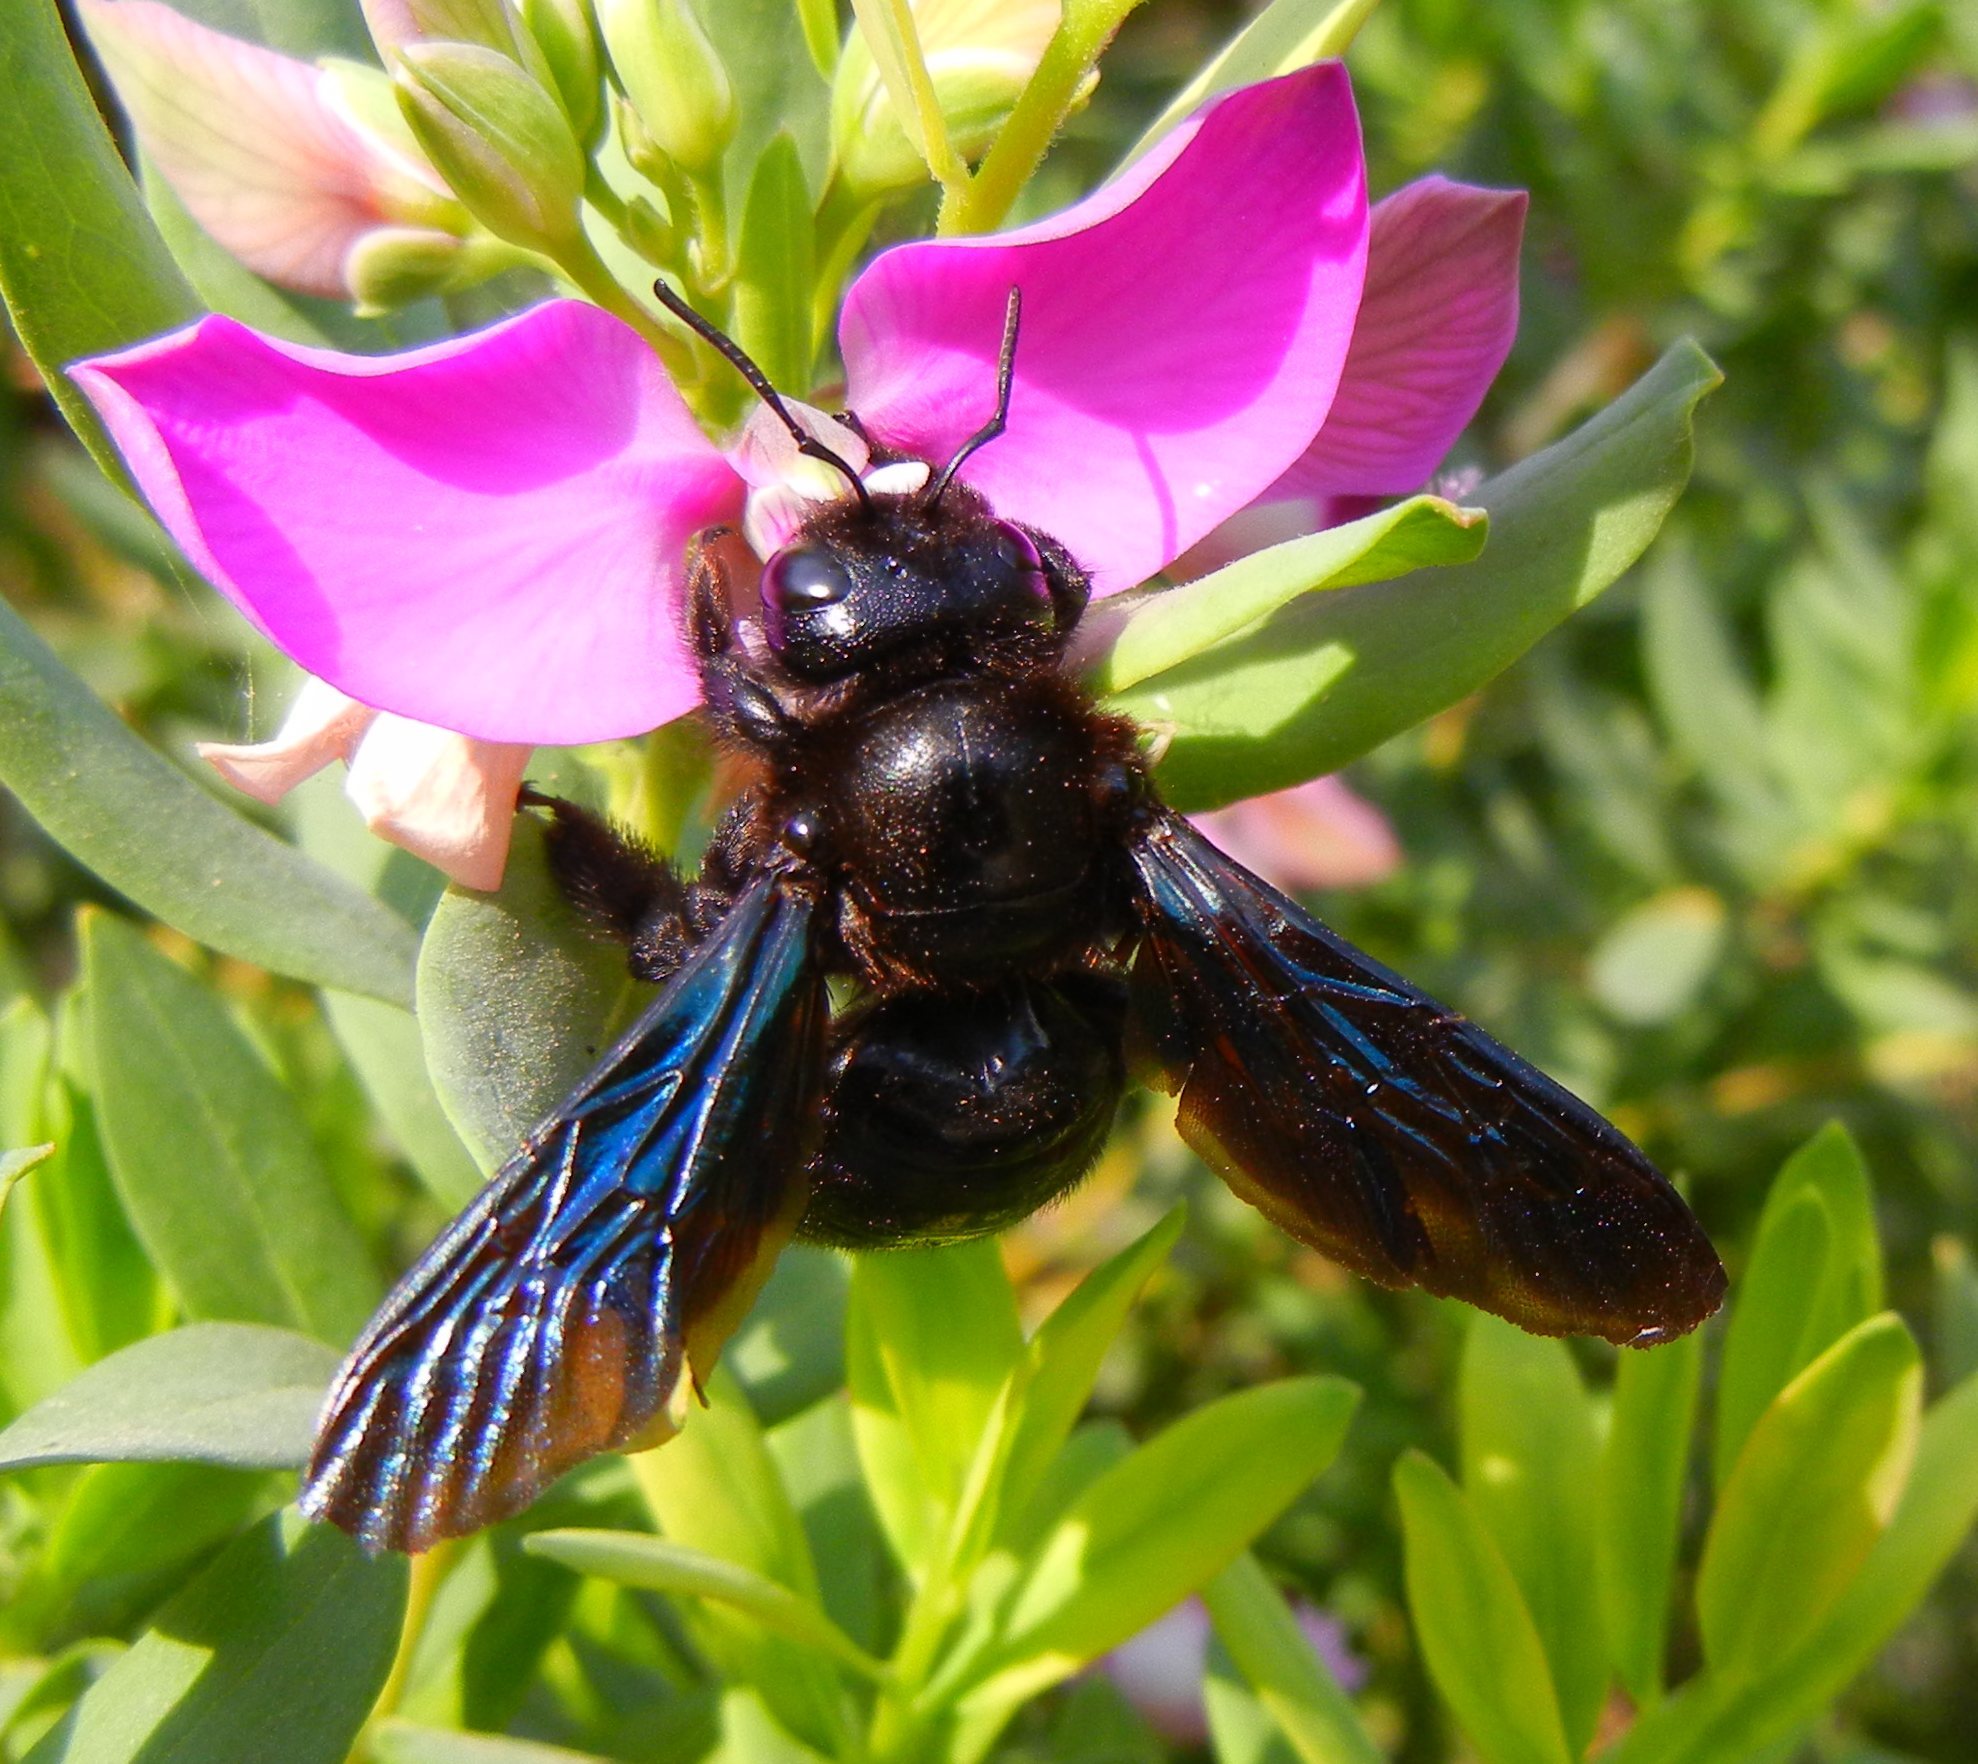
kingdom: Animalia
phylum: Arthropoda
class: Insecta
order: Hymenoptera
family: Apidae
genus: Xylocopa
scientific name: Xylocopa violacea
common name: Violet carpenter bee
